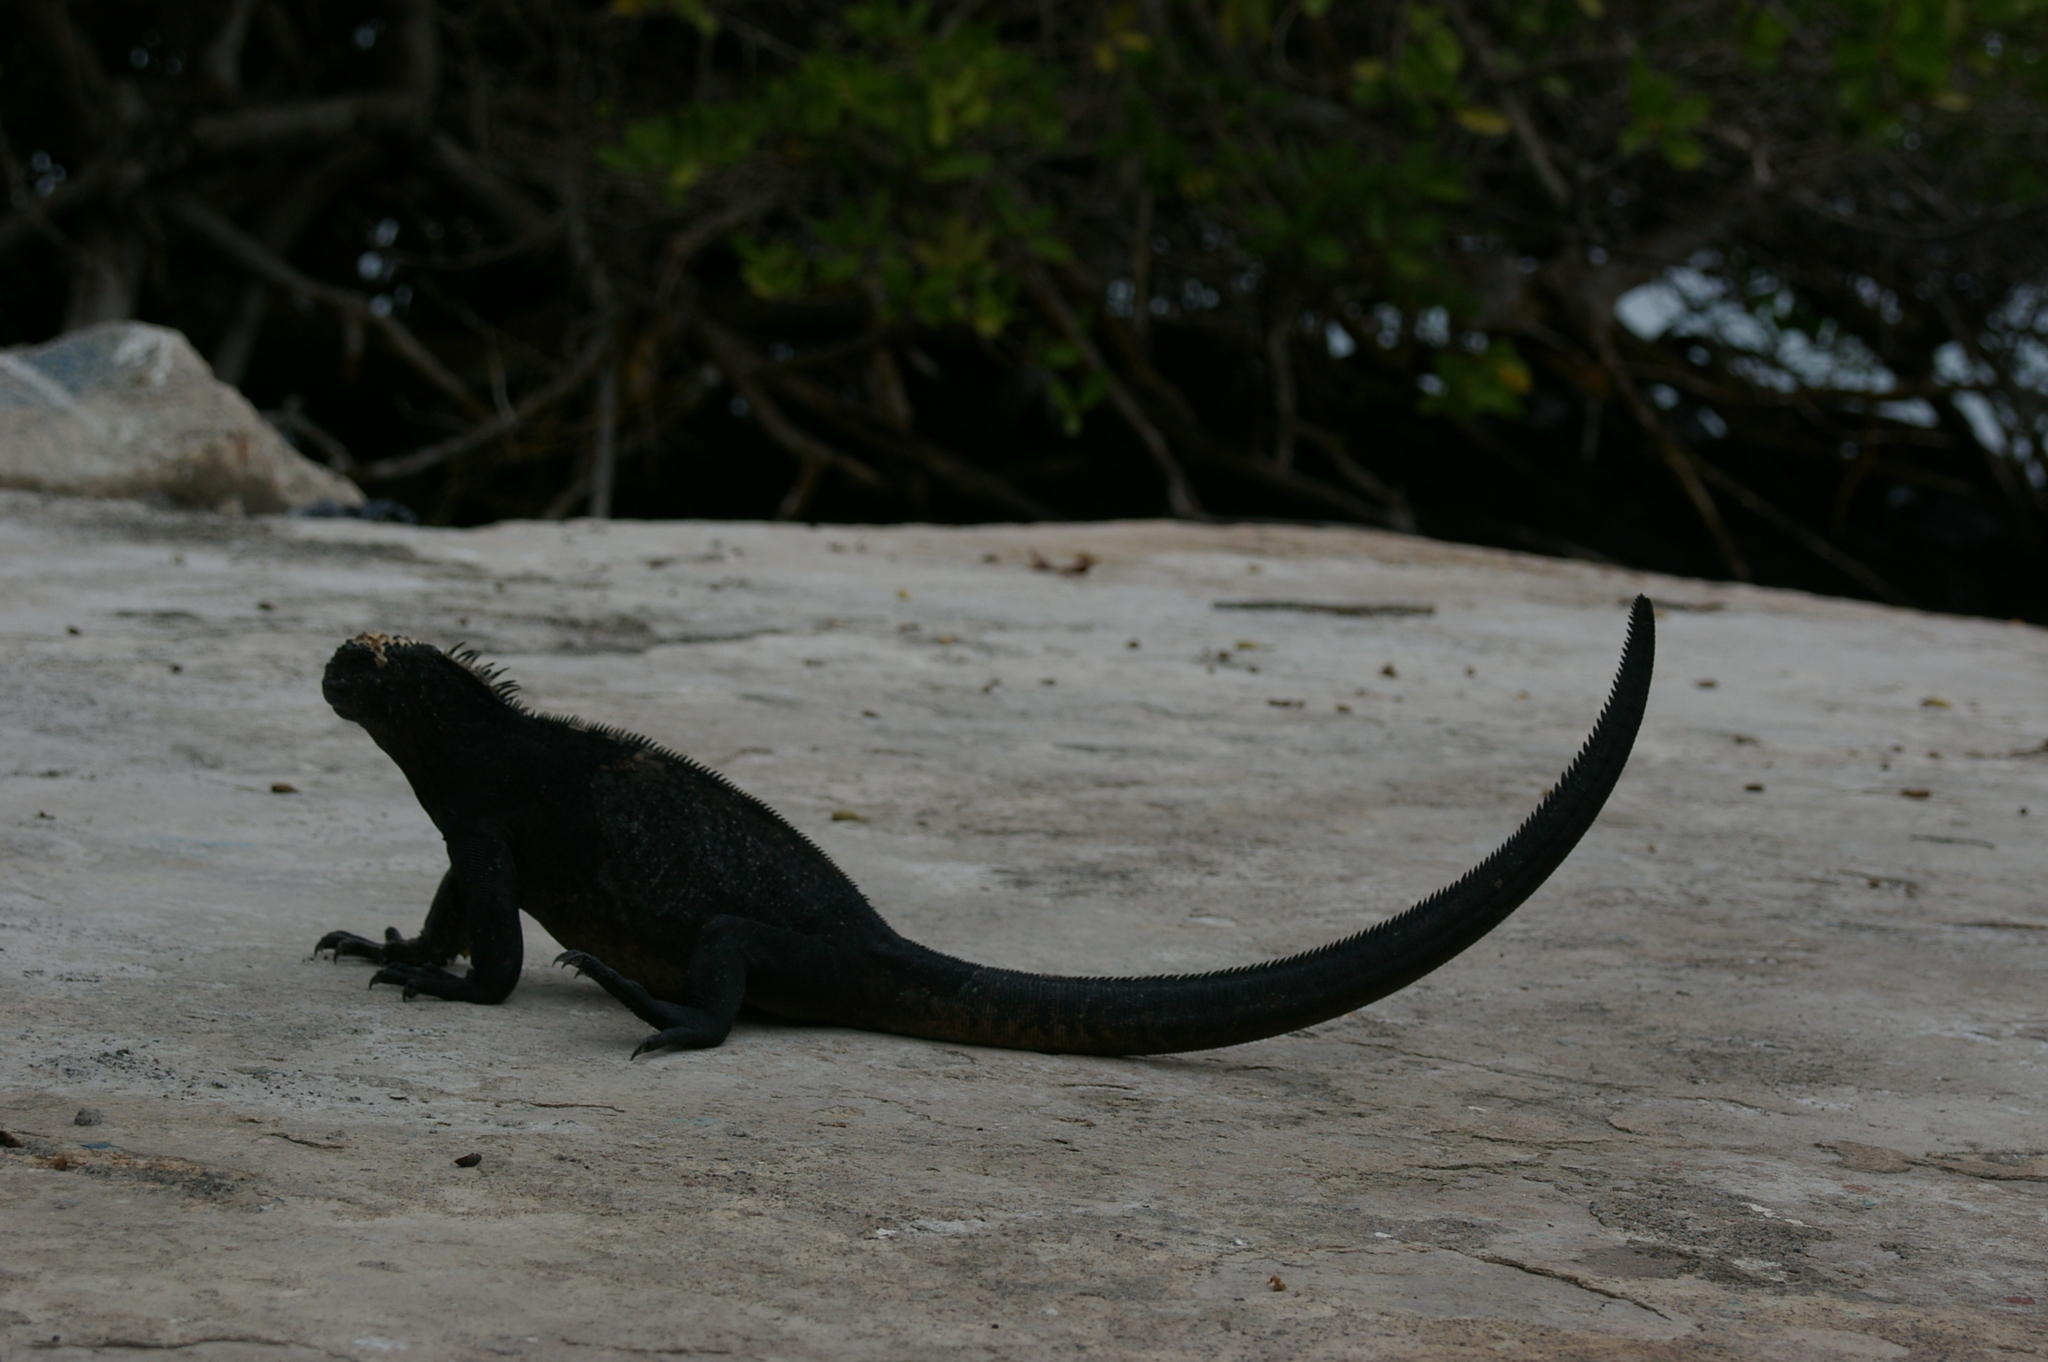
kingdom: Animalia
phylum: Chordata
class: Squamata
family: Iguanidae
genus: Amblyrhynchus
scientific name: Amblyrhynchus cristatus
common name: Marine iguana
